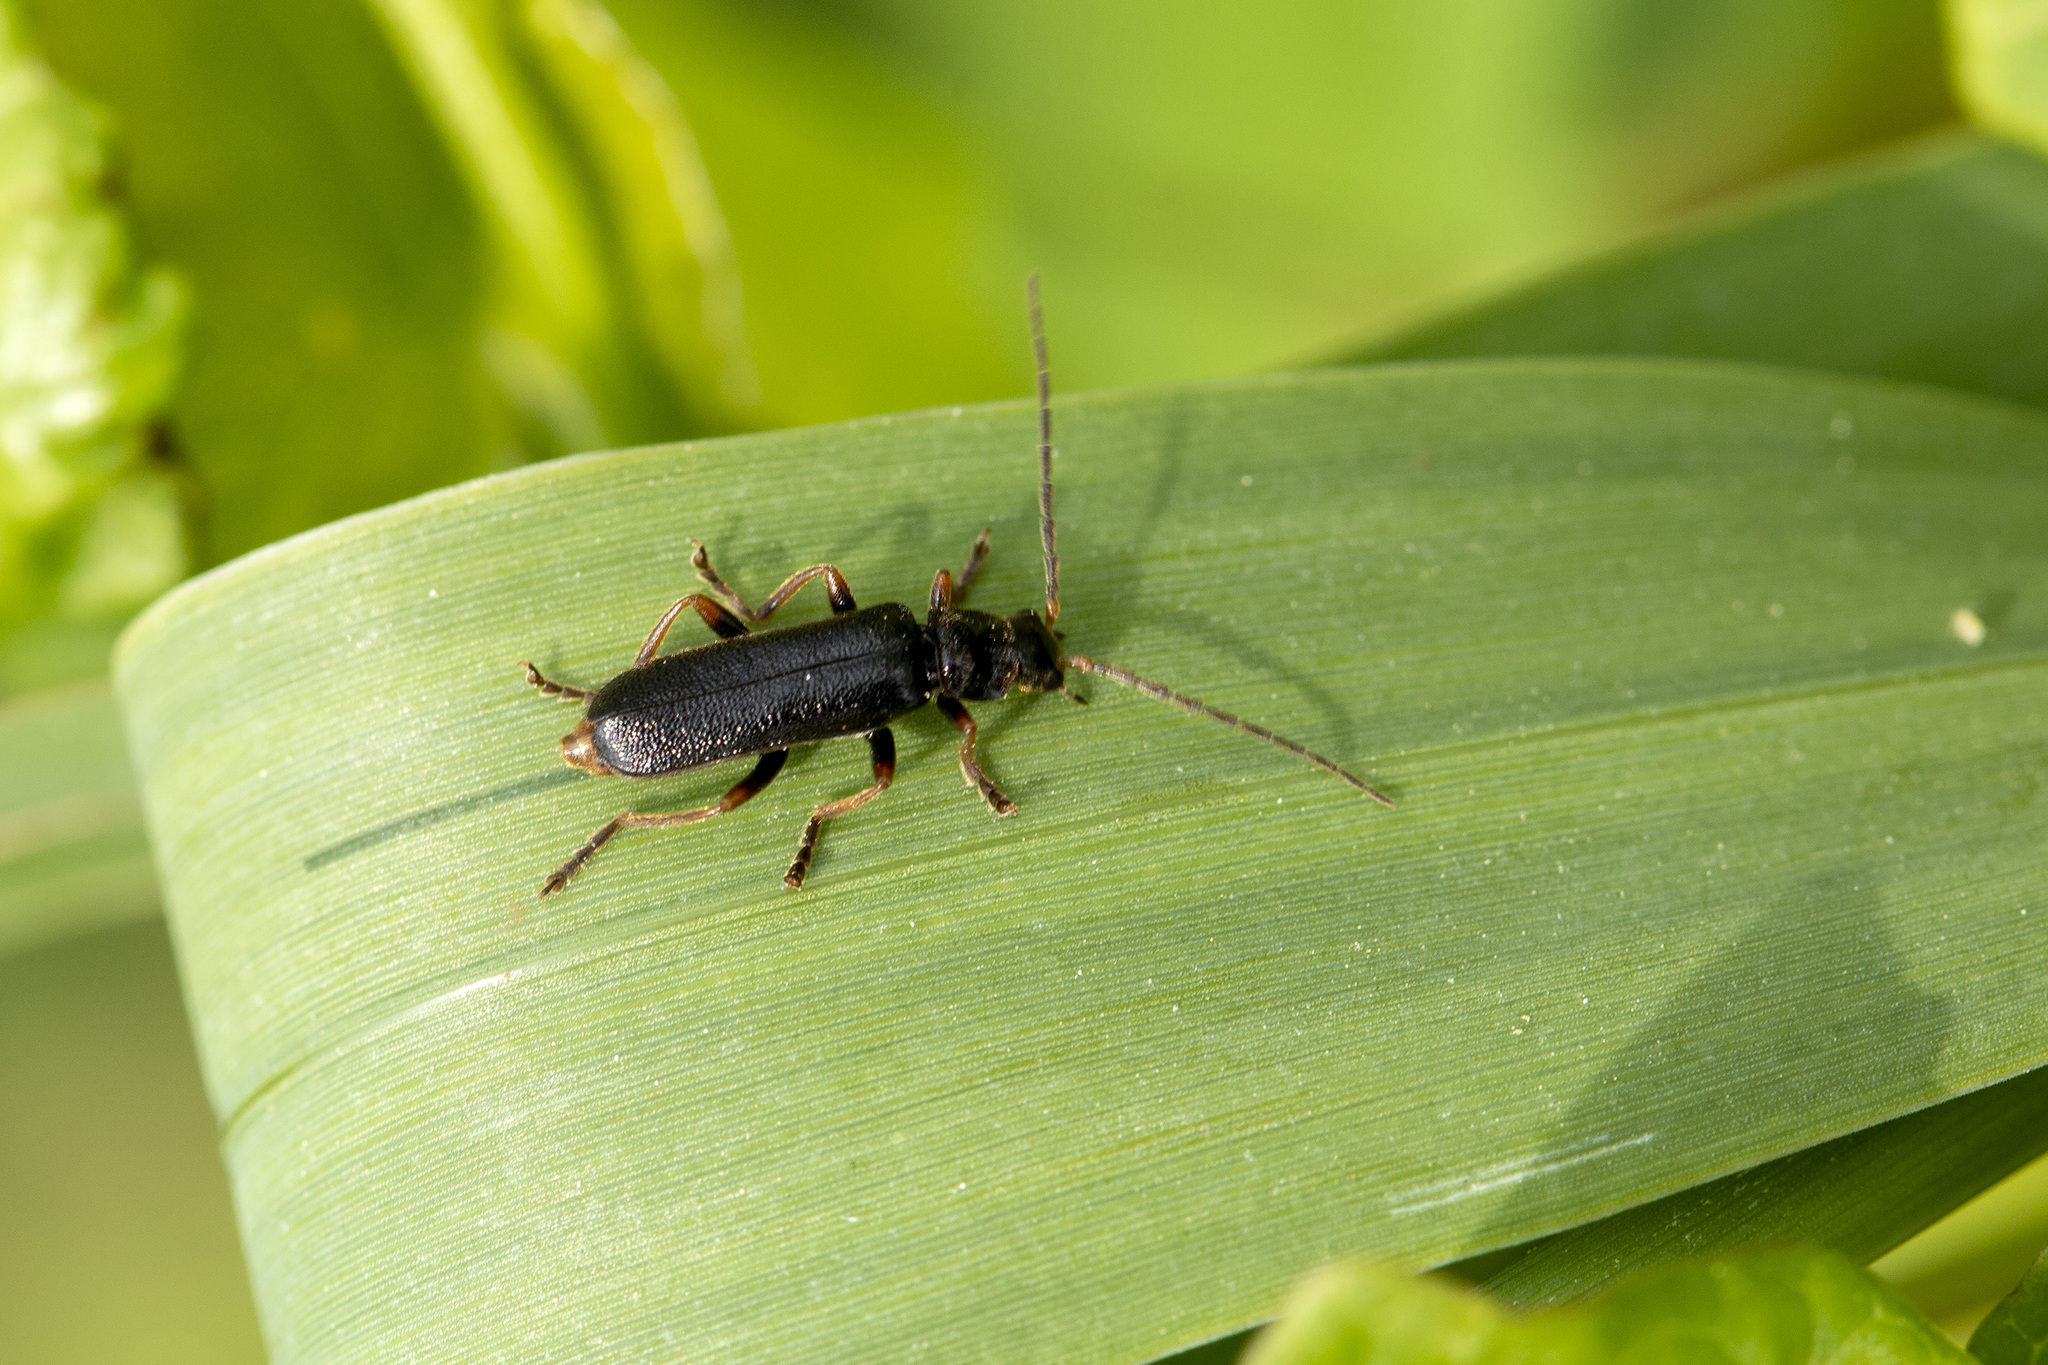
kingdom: Animalia
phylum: Arthropoda
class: Insecta
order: Coleoptera
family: Cantharidae
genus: Cantharis
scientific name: Cantharis flavilabris
